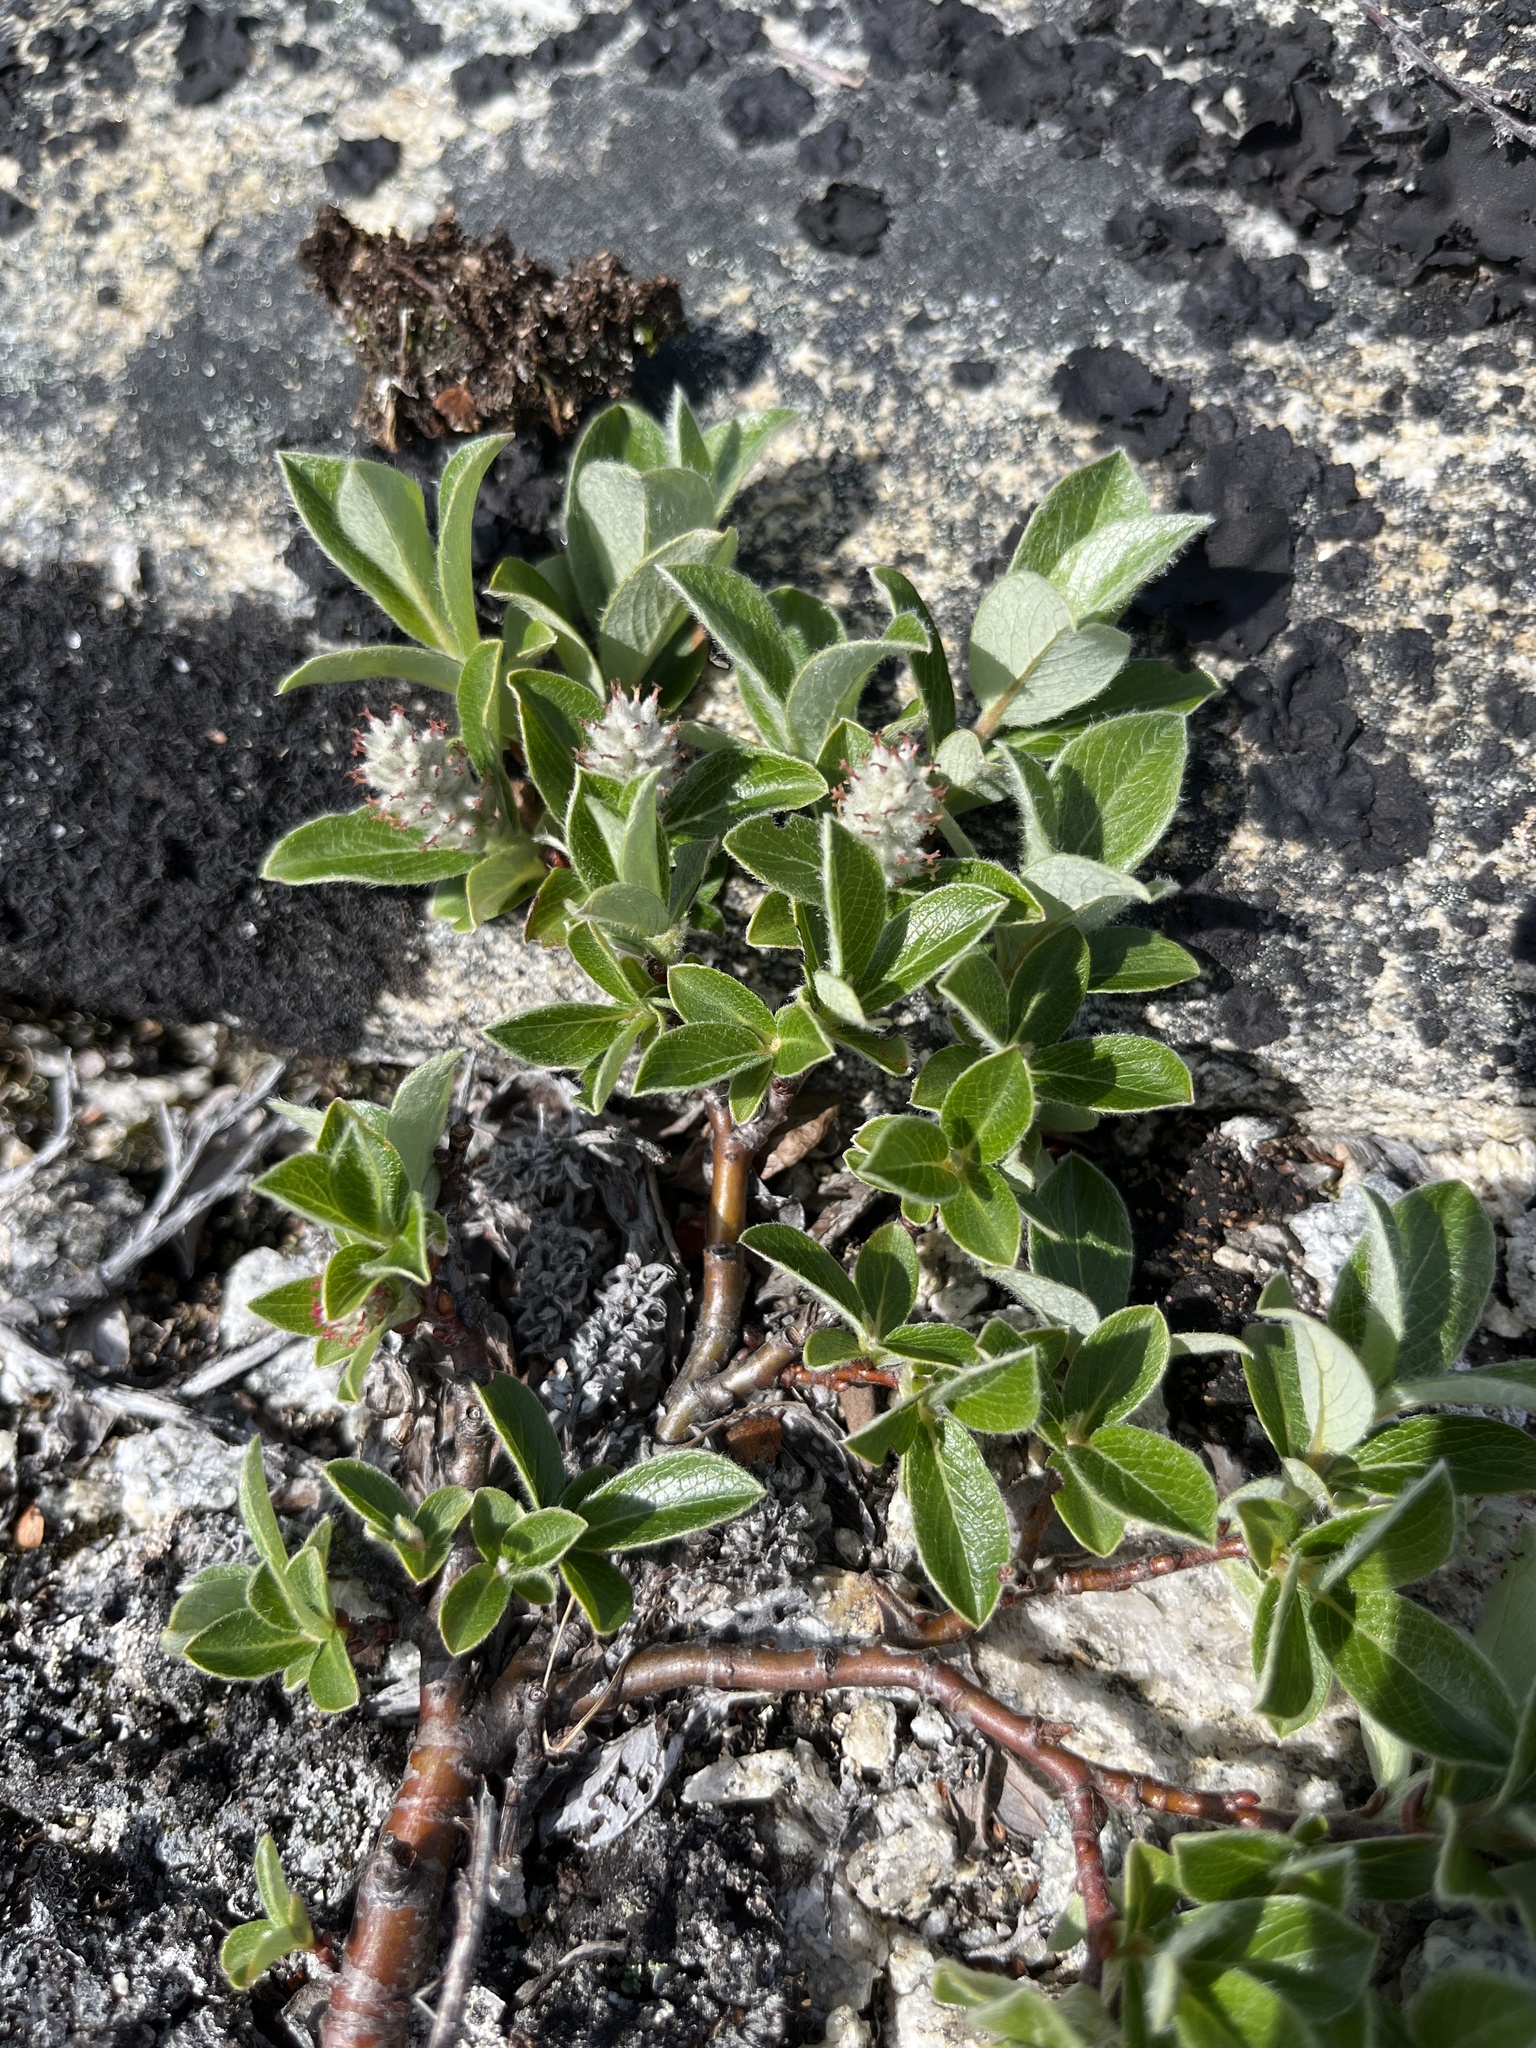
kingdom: Plantae
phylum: Tracheophyta
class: Magnoliopsida
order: Malpighiales
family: Salicaceae
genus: Salix
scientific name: Salix glauca
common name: Glaucous willow
